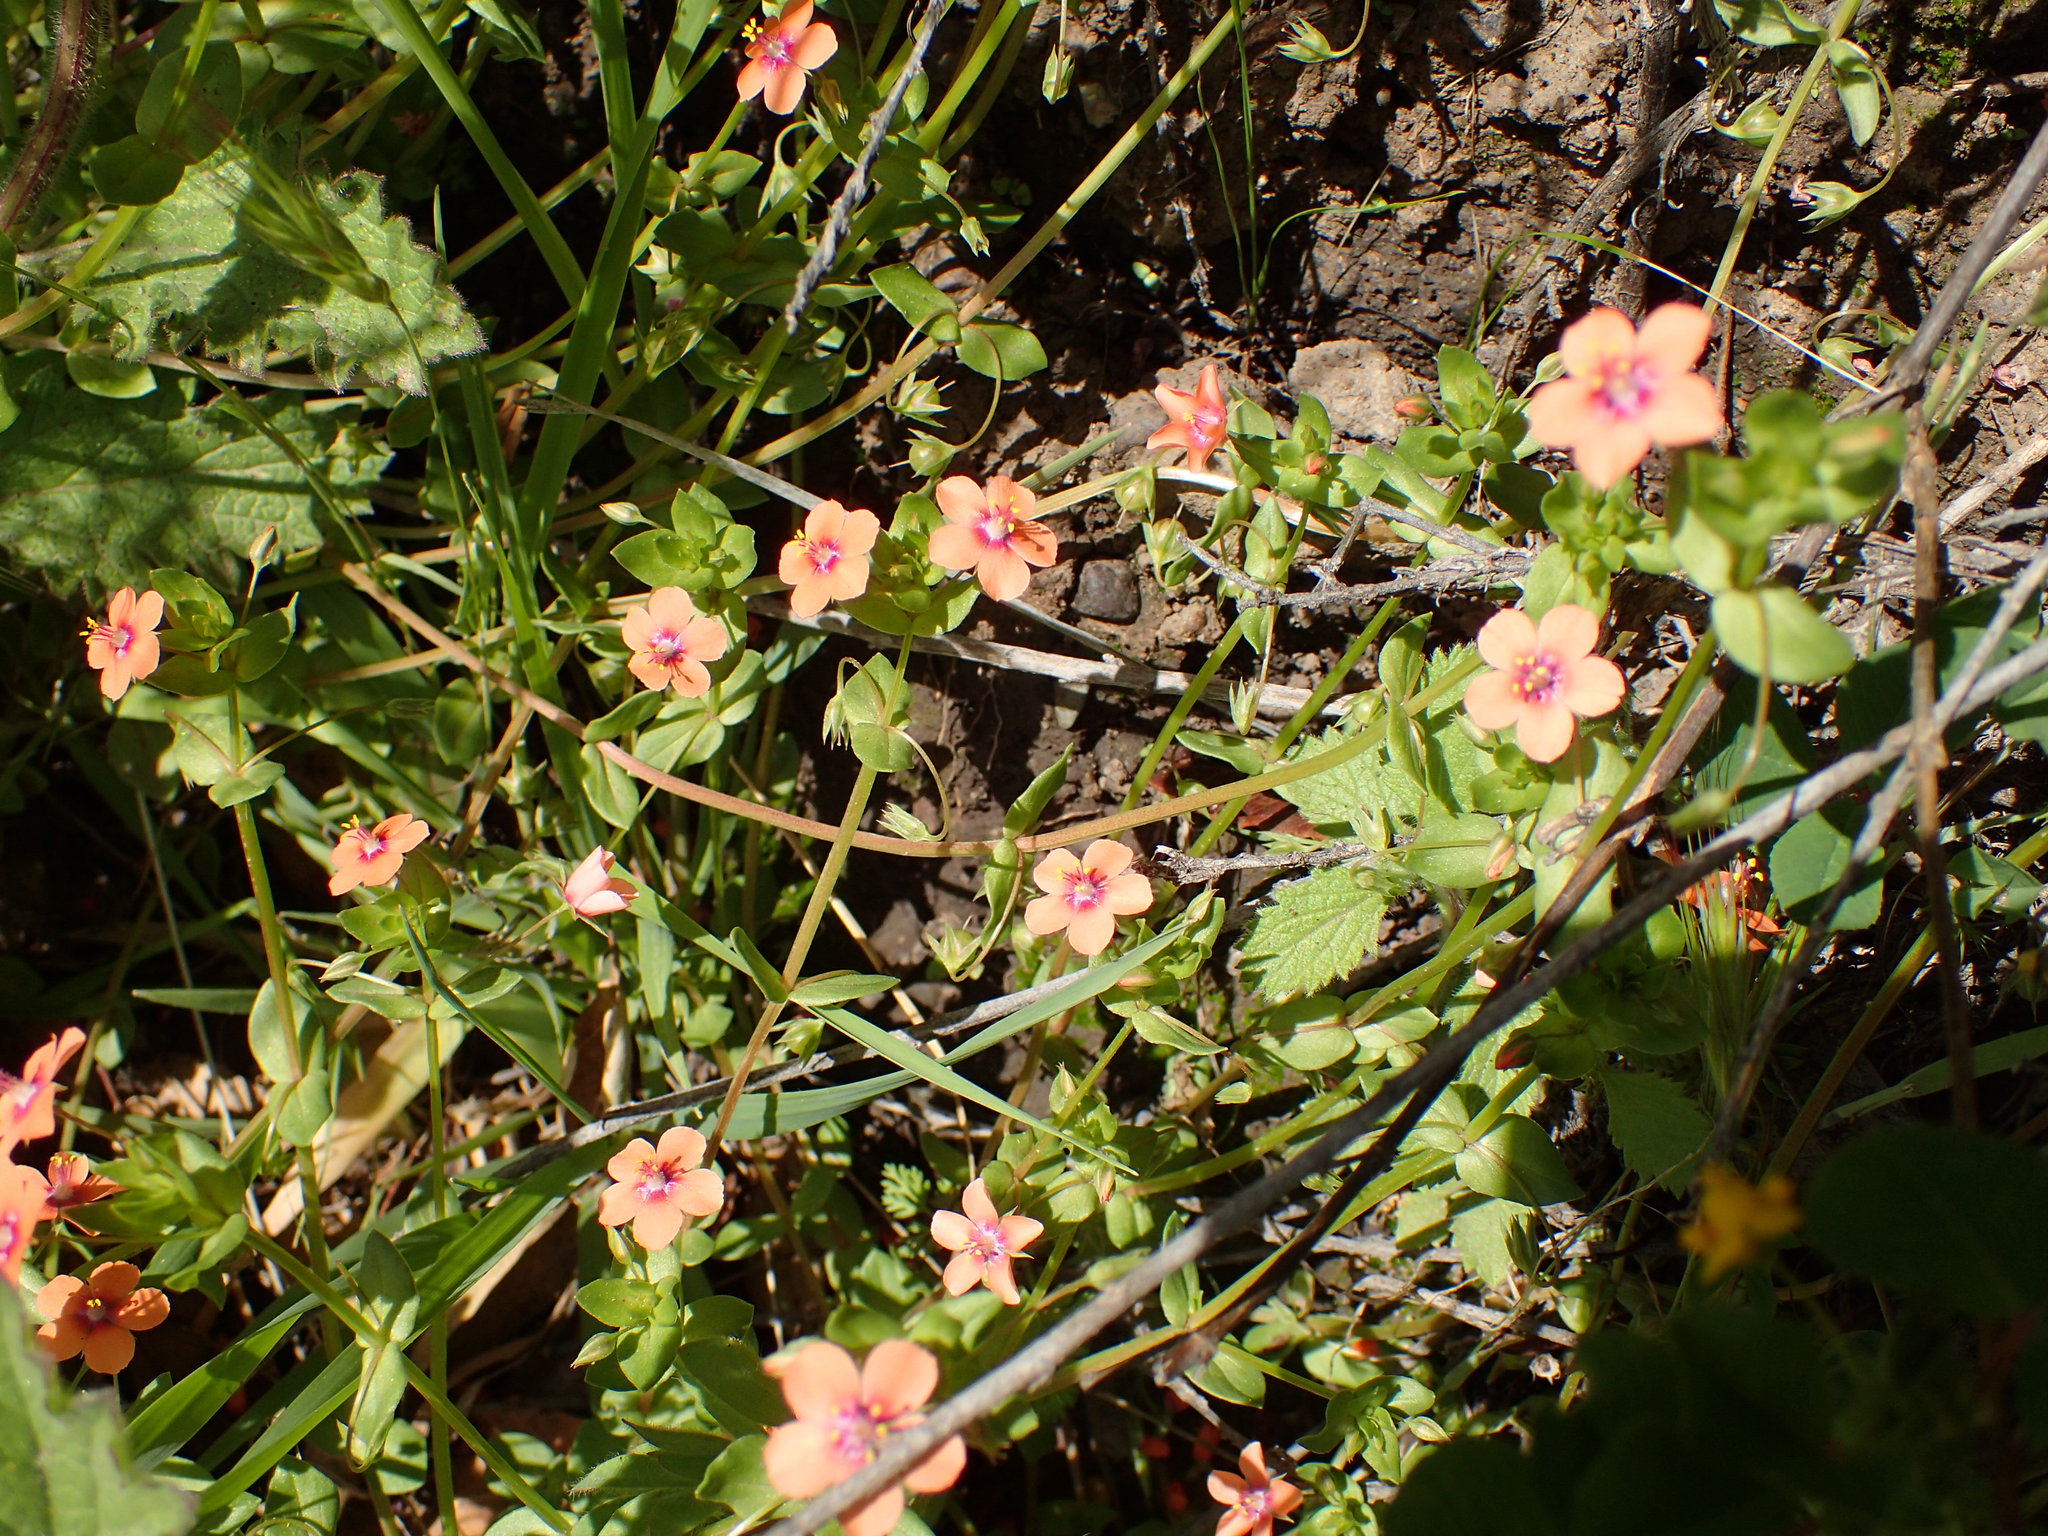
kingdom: Plantae
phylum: Tracheophyta
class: Magnoliopsida
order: Ericales
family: Primulaceae
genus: Lysimachia
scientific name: Lysimachia arvensis
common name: Scarlet pimpernel
